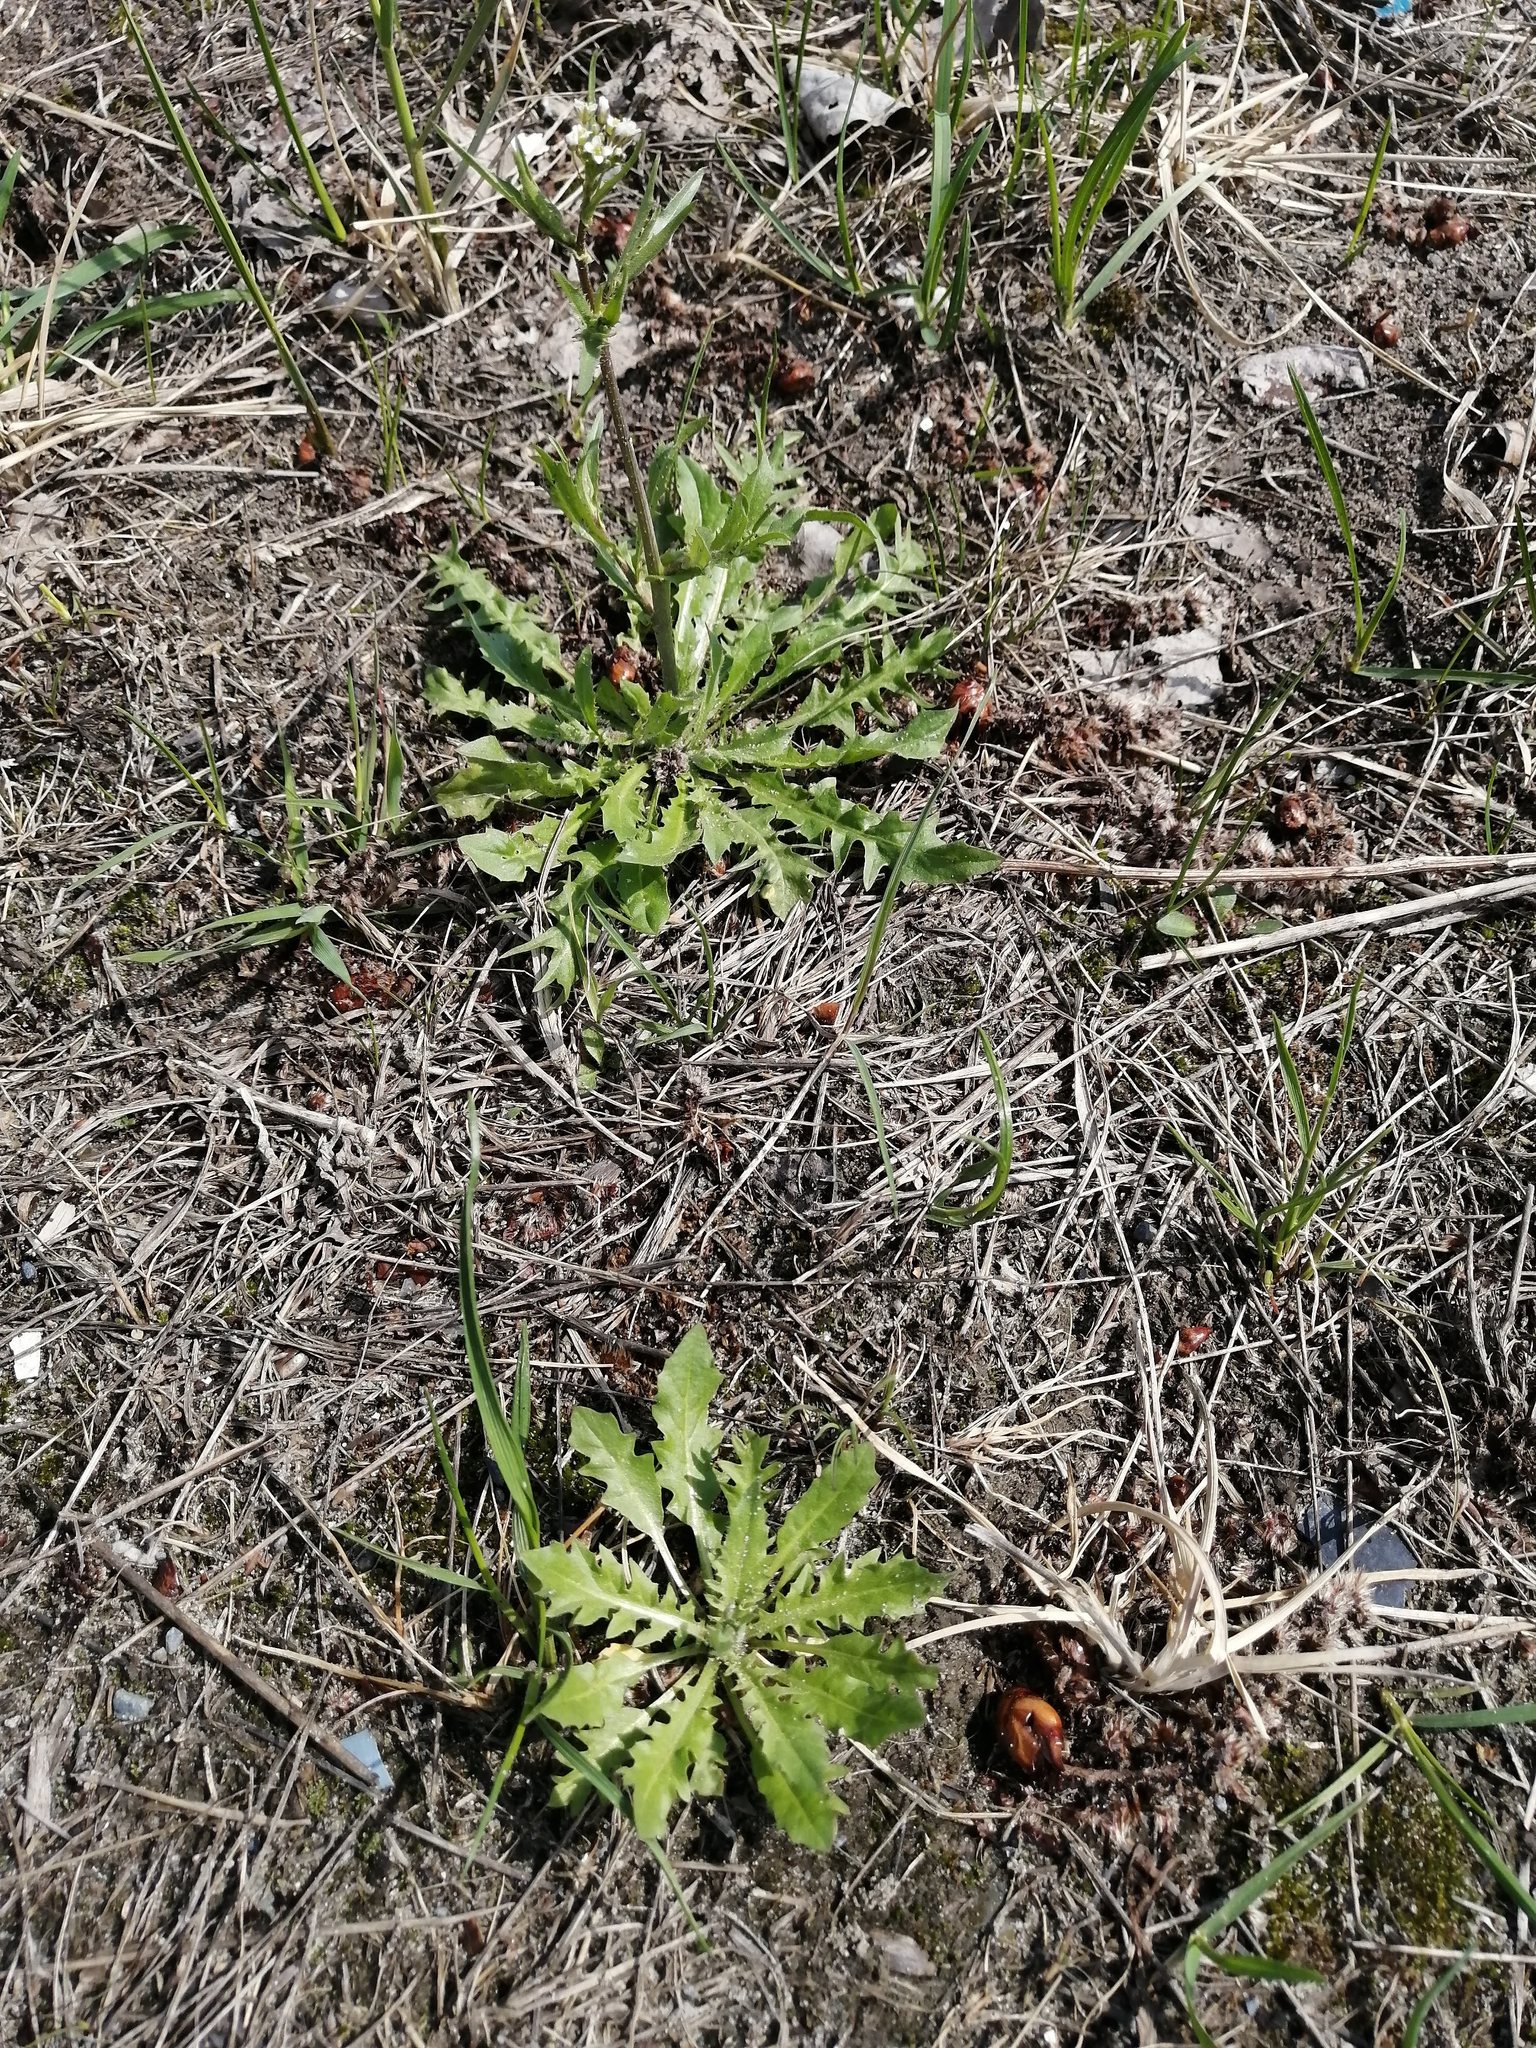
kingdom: Plantae
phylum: Tracheophyta
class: Magnoliopsida
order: Brassicales
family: Brassicaceae
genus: Capsella
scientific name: Capsella bursa-pastoris
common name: Shepherd's purse
